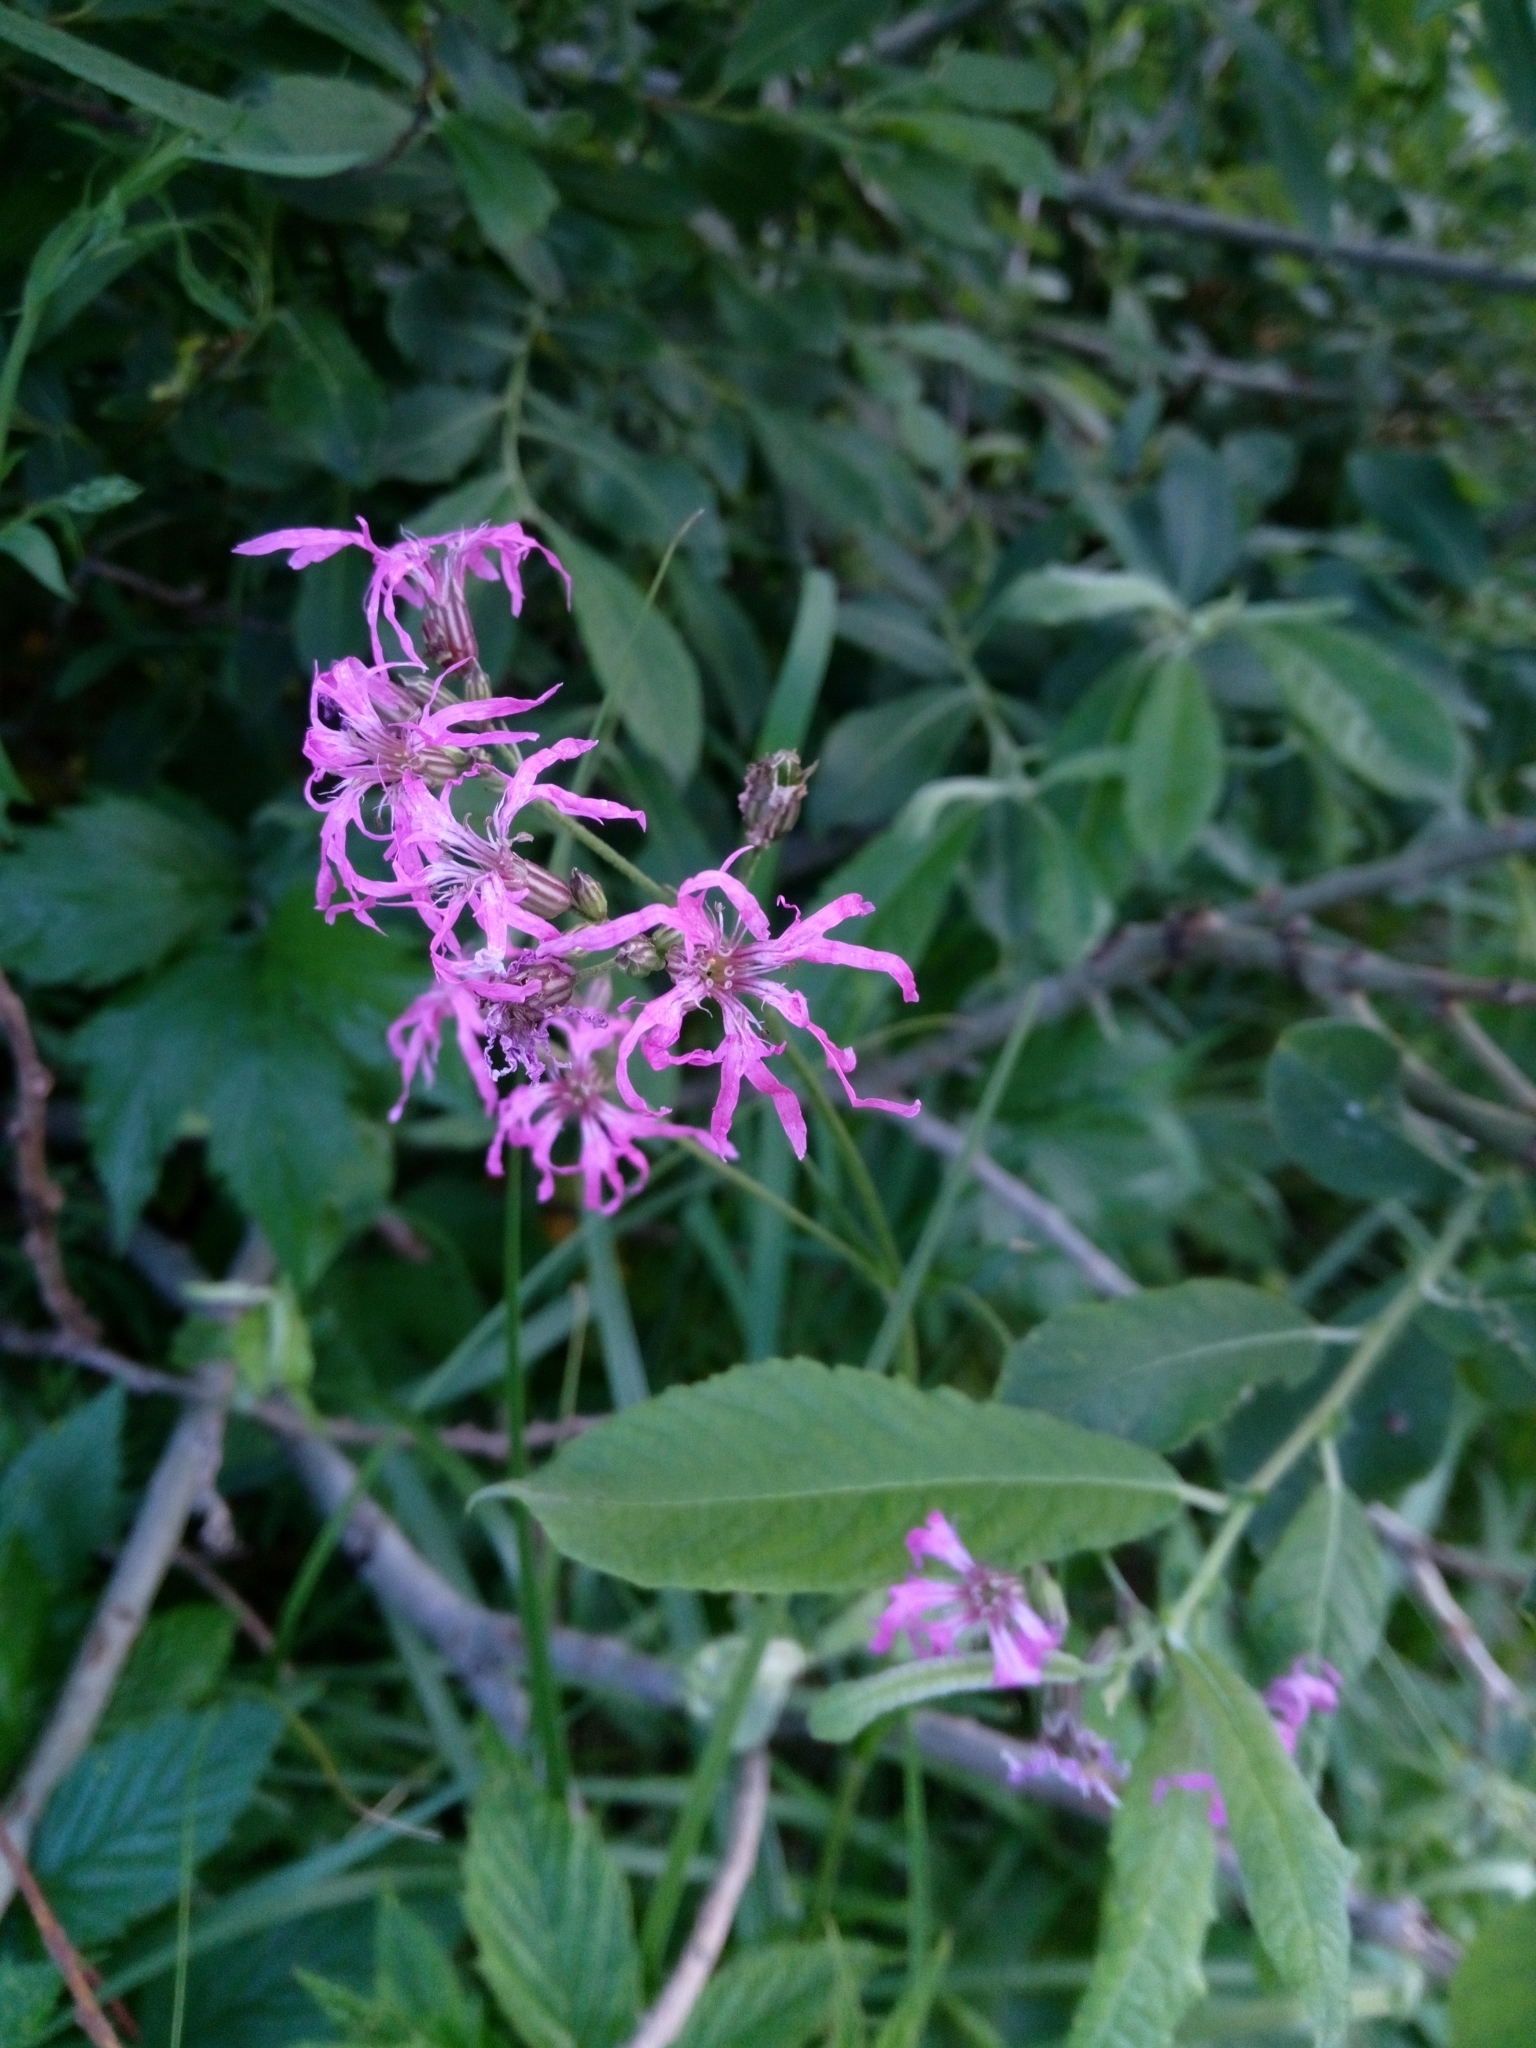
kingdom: Plantae
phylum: Tracheophyta
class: Magnoliopsida
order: Caryophyllales
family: Caryophyllaceae
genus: Silene
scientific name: Silene flos-cuculi
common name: Ragged-robin
